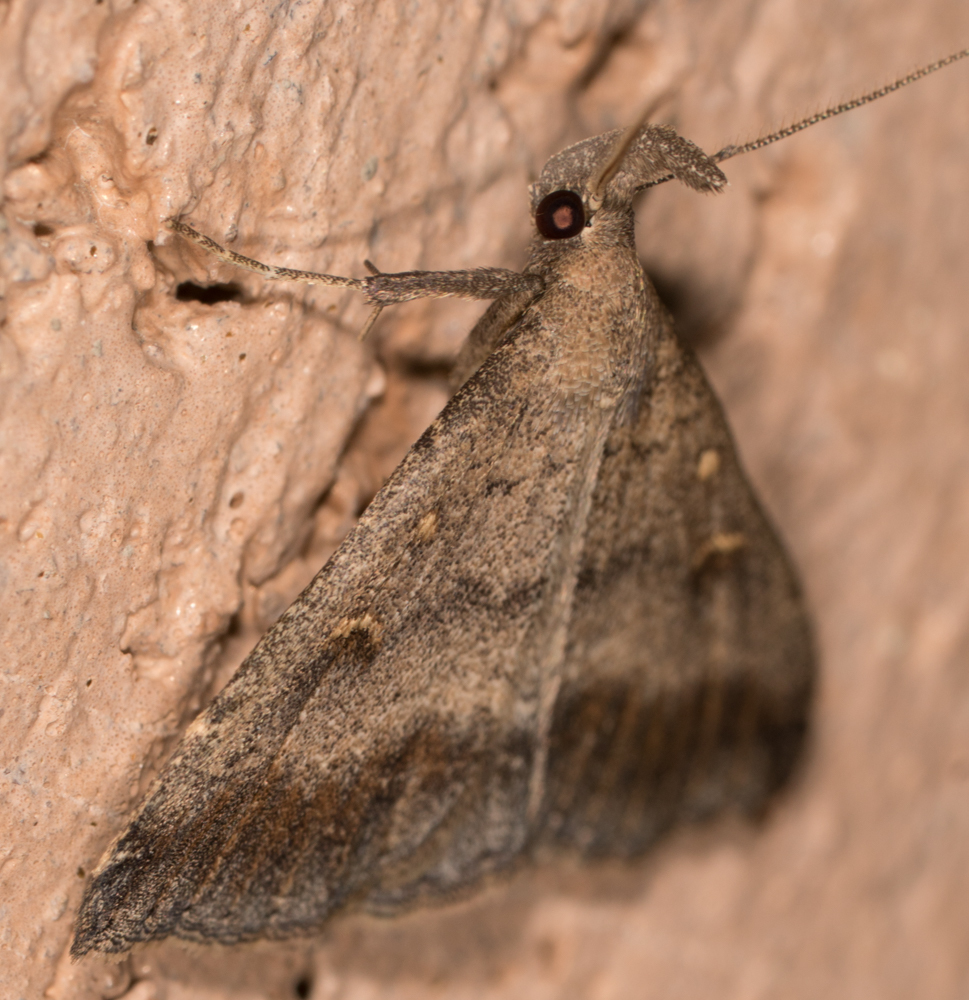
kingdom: Animalia
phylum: Arthropoda
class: Insecta
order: Lepidoptera
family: Erebidae
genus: Tetanolita
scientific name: Tetanolita palligera
